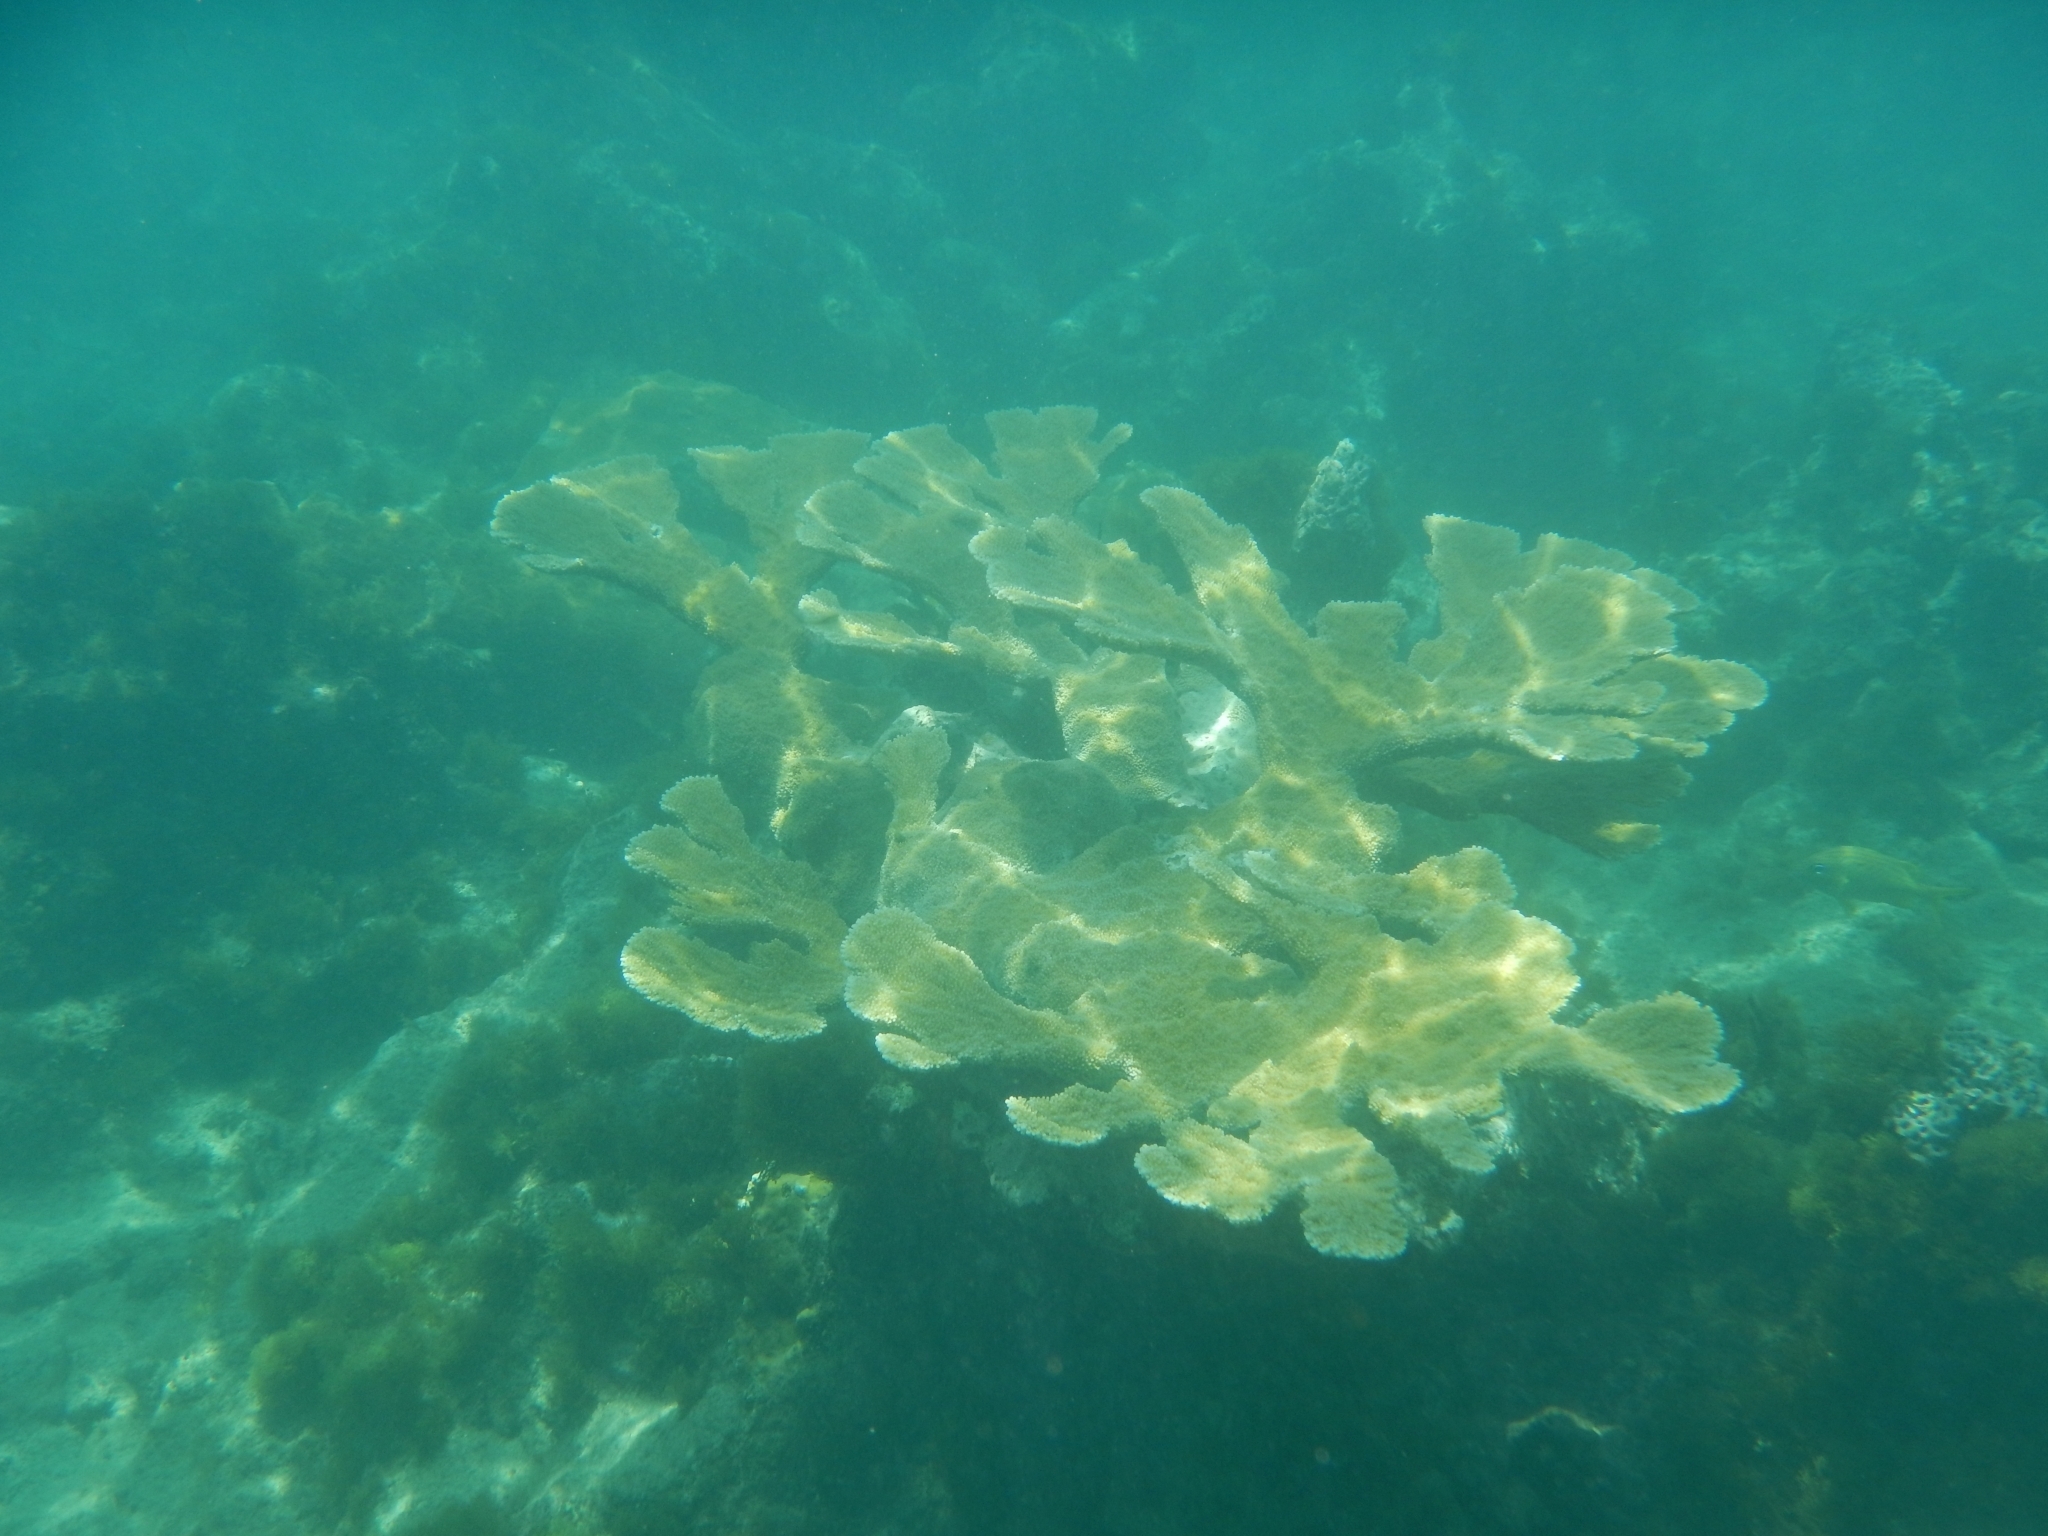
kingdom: Animalia
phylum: Cnidaria
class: Anthozoa
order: Scleractinia
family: Acroporidae
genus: Acropora
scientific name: Acropora palmata
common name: Elkhorn coral
